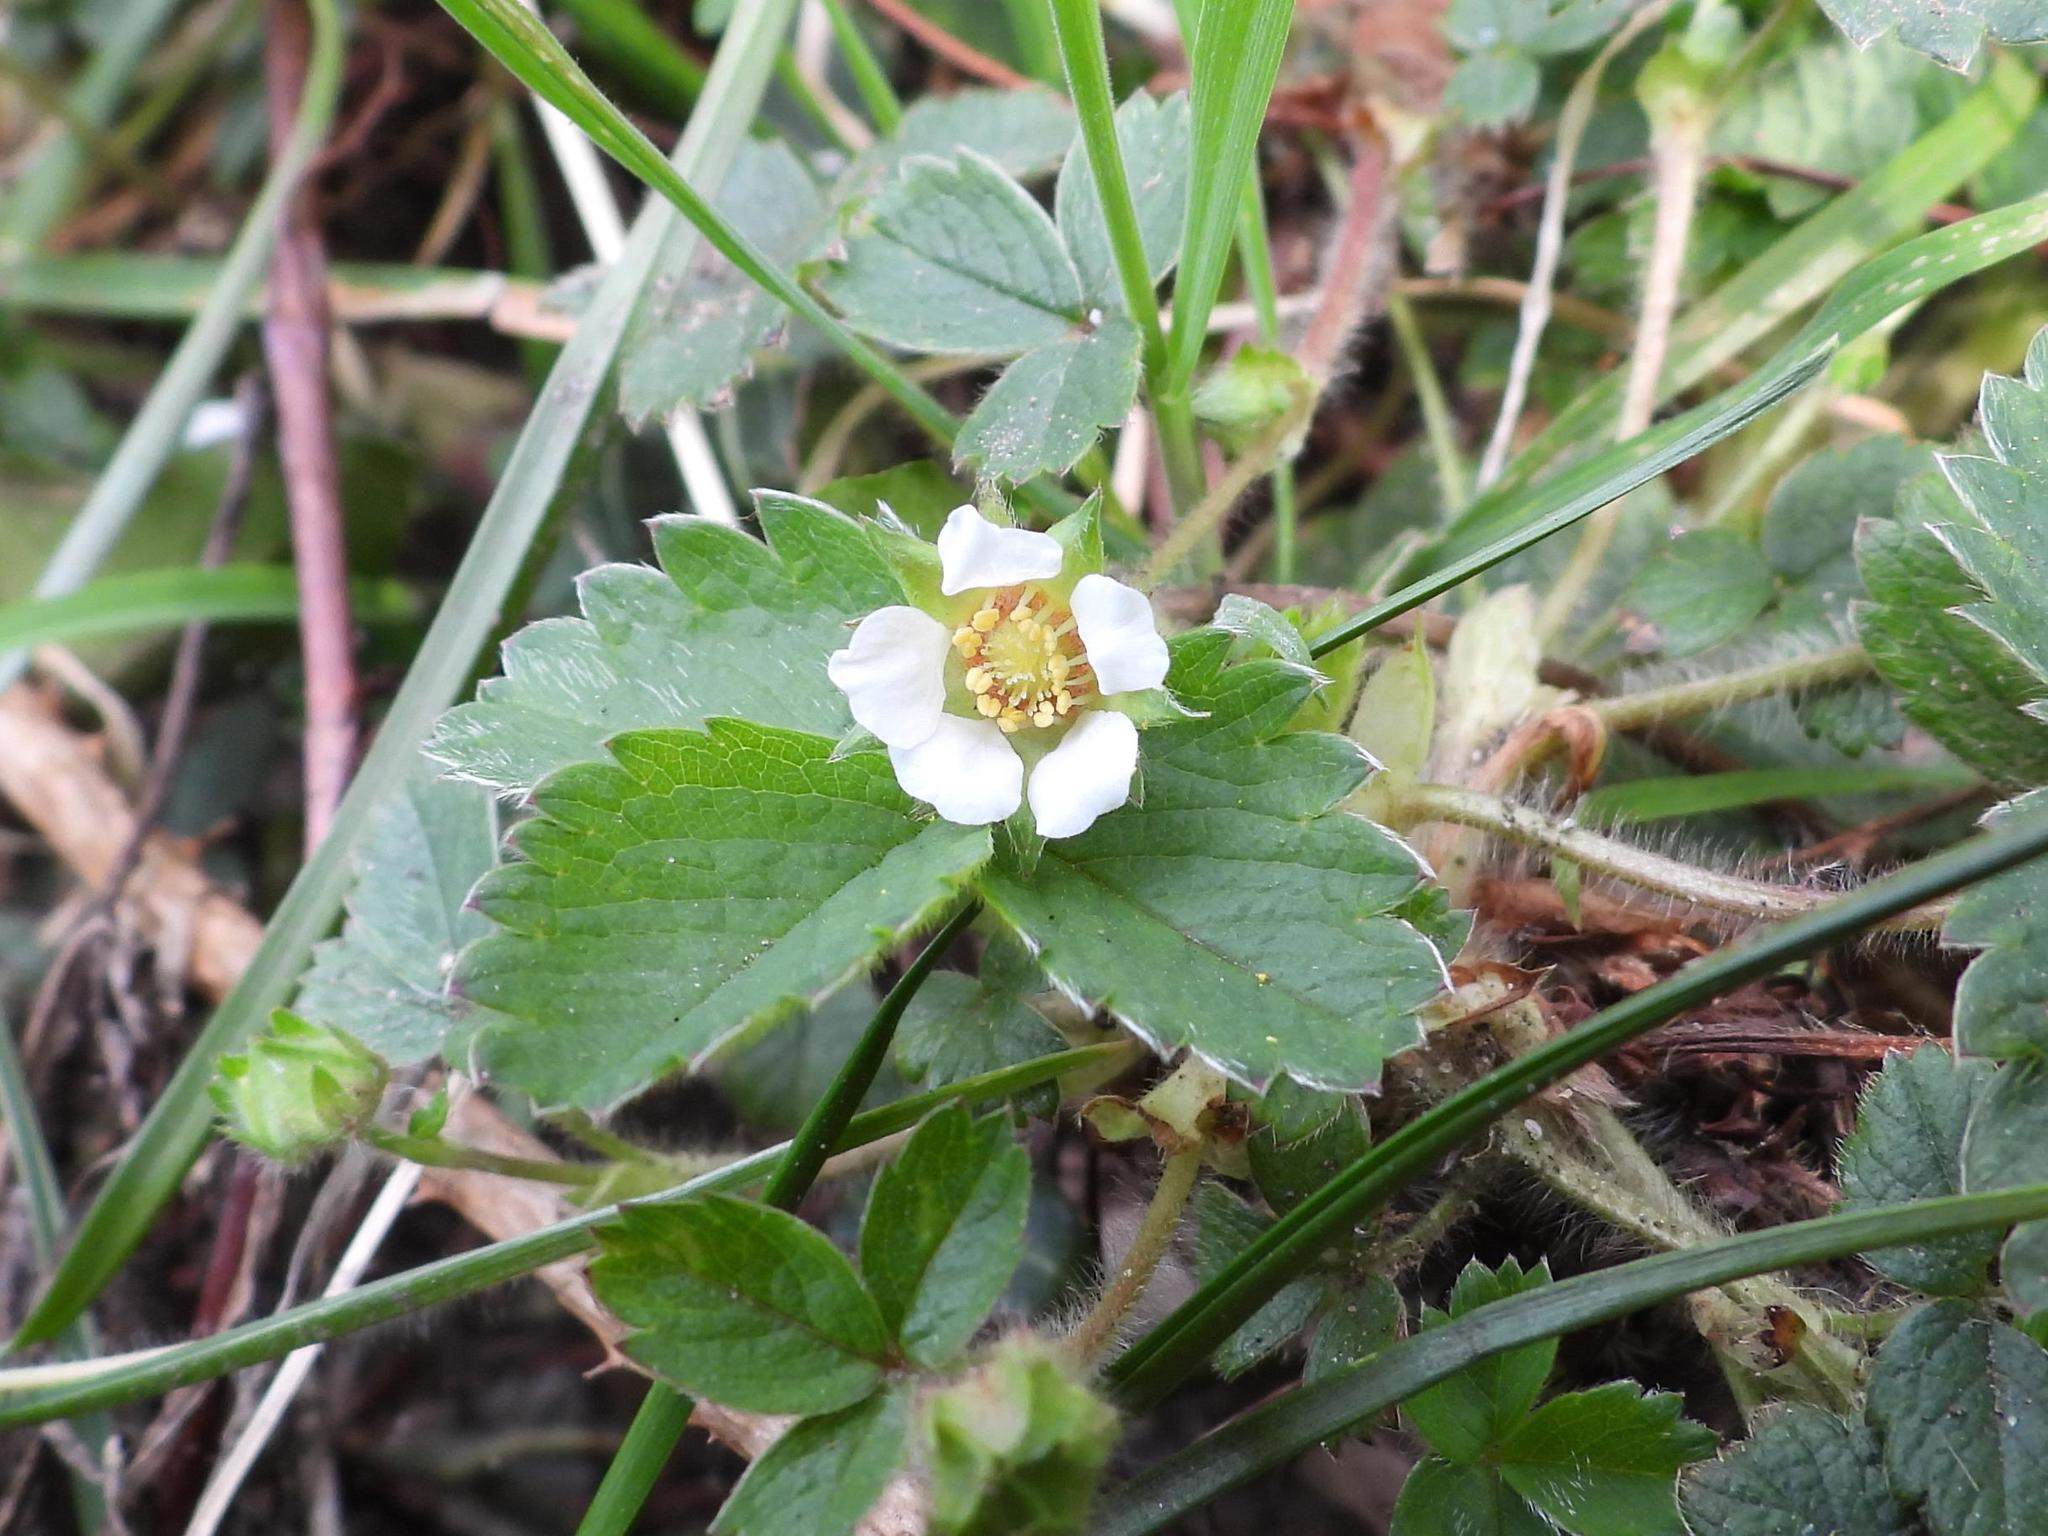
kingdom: Plantae
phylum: Tracheophyta
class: Magnoliopsida
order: Rosales
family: Rosaceae
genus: Potentilla
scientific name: Potentilla sterilis
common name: Barren strawberry
